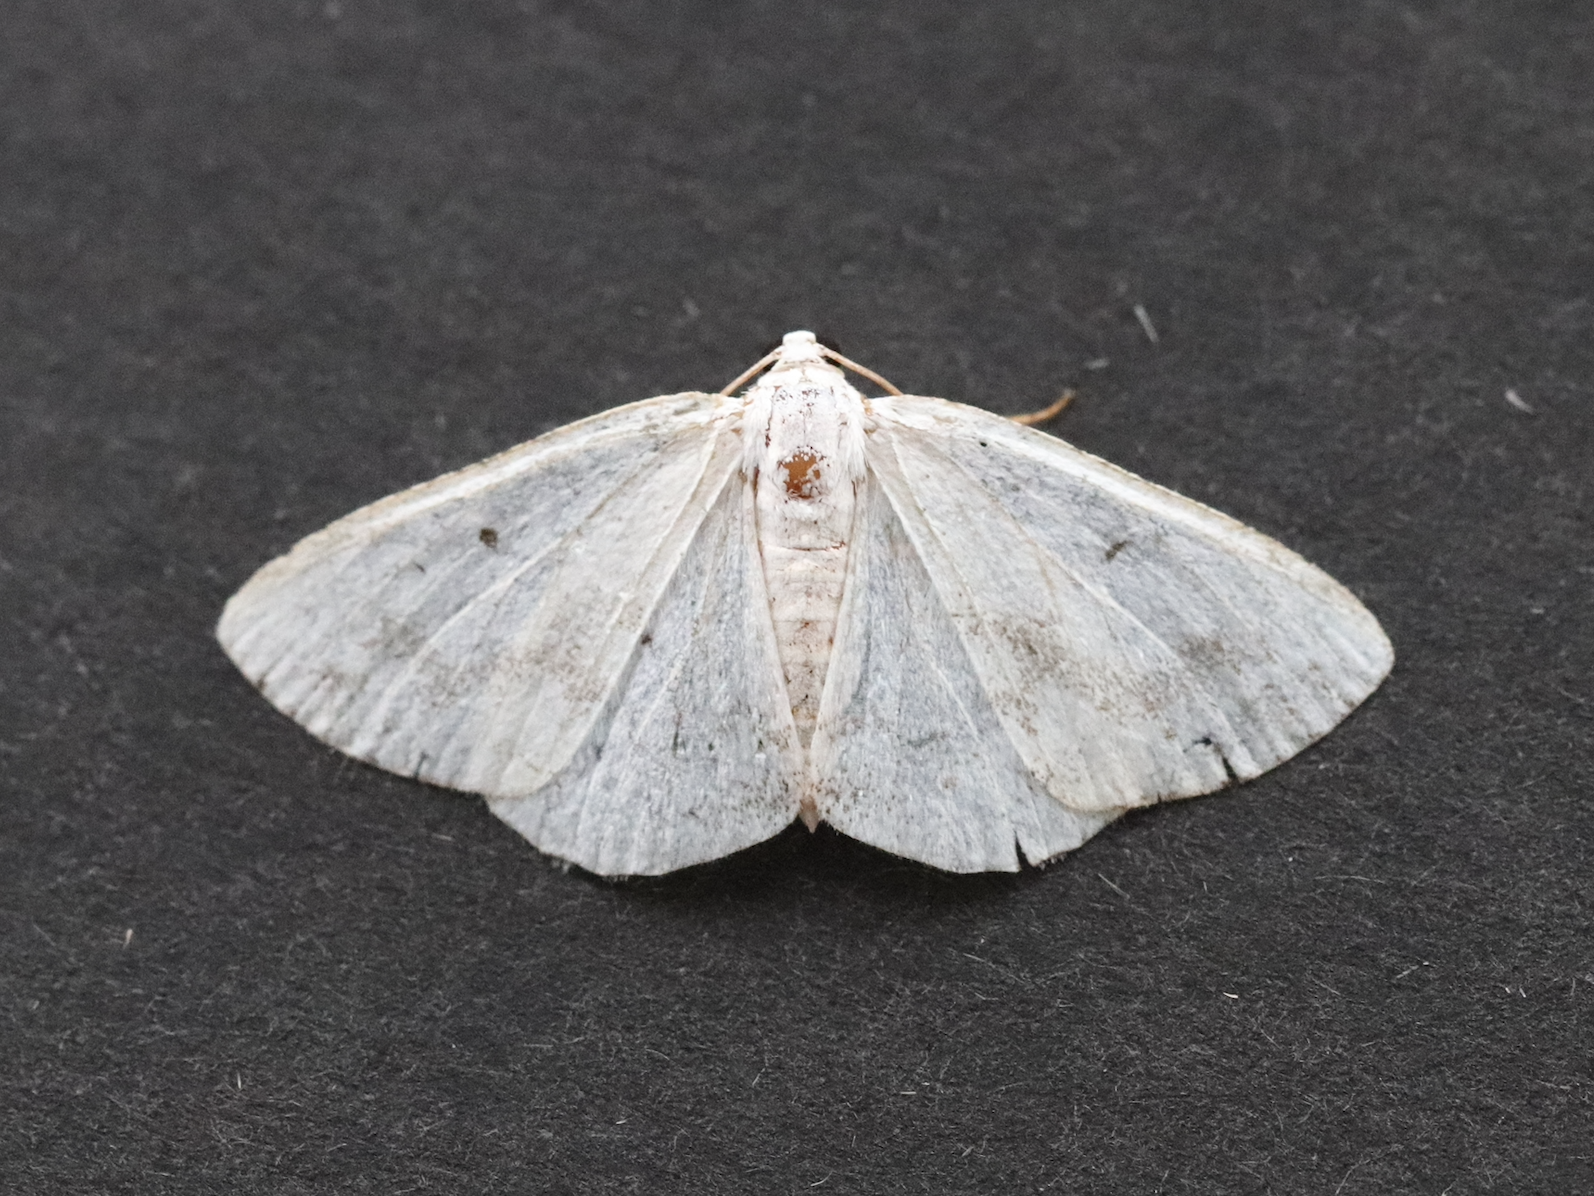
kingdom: Animalia
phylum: Arthropoda
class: Insecta
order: Lepidoptera
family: Geometridae
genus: Lomographa
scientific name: Lomographa temerata
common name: Clouded silver
